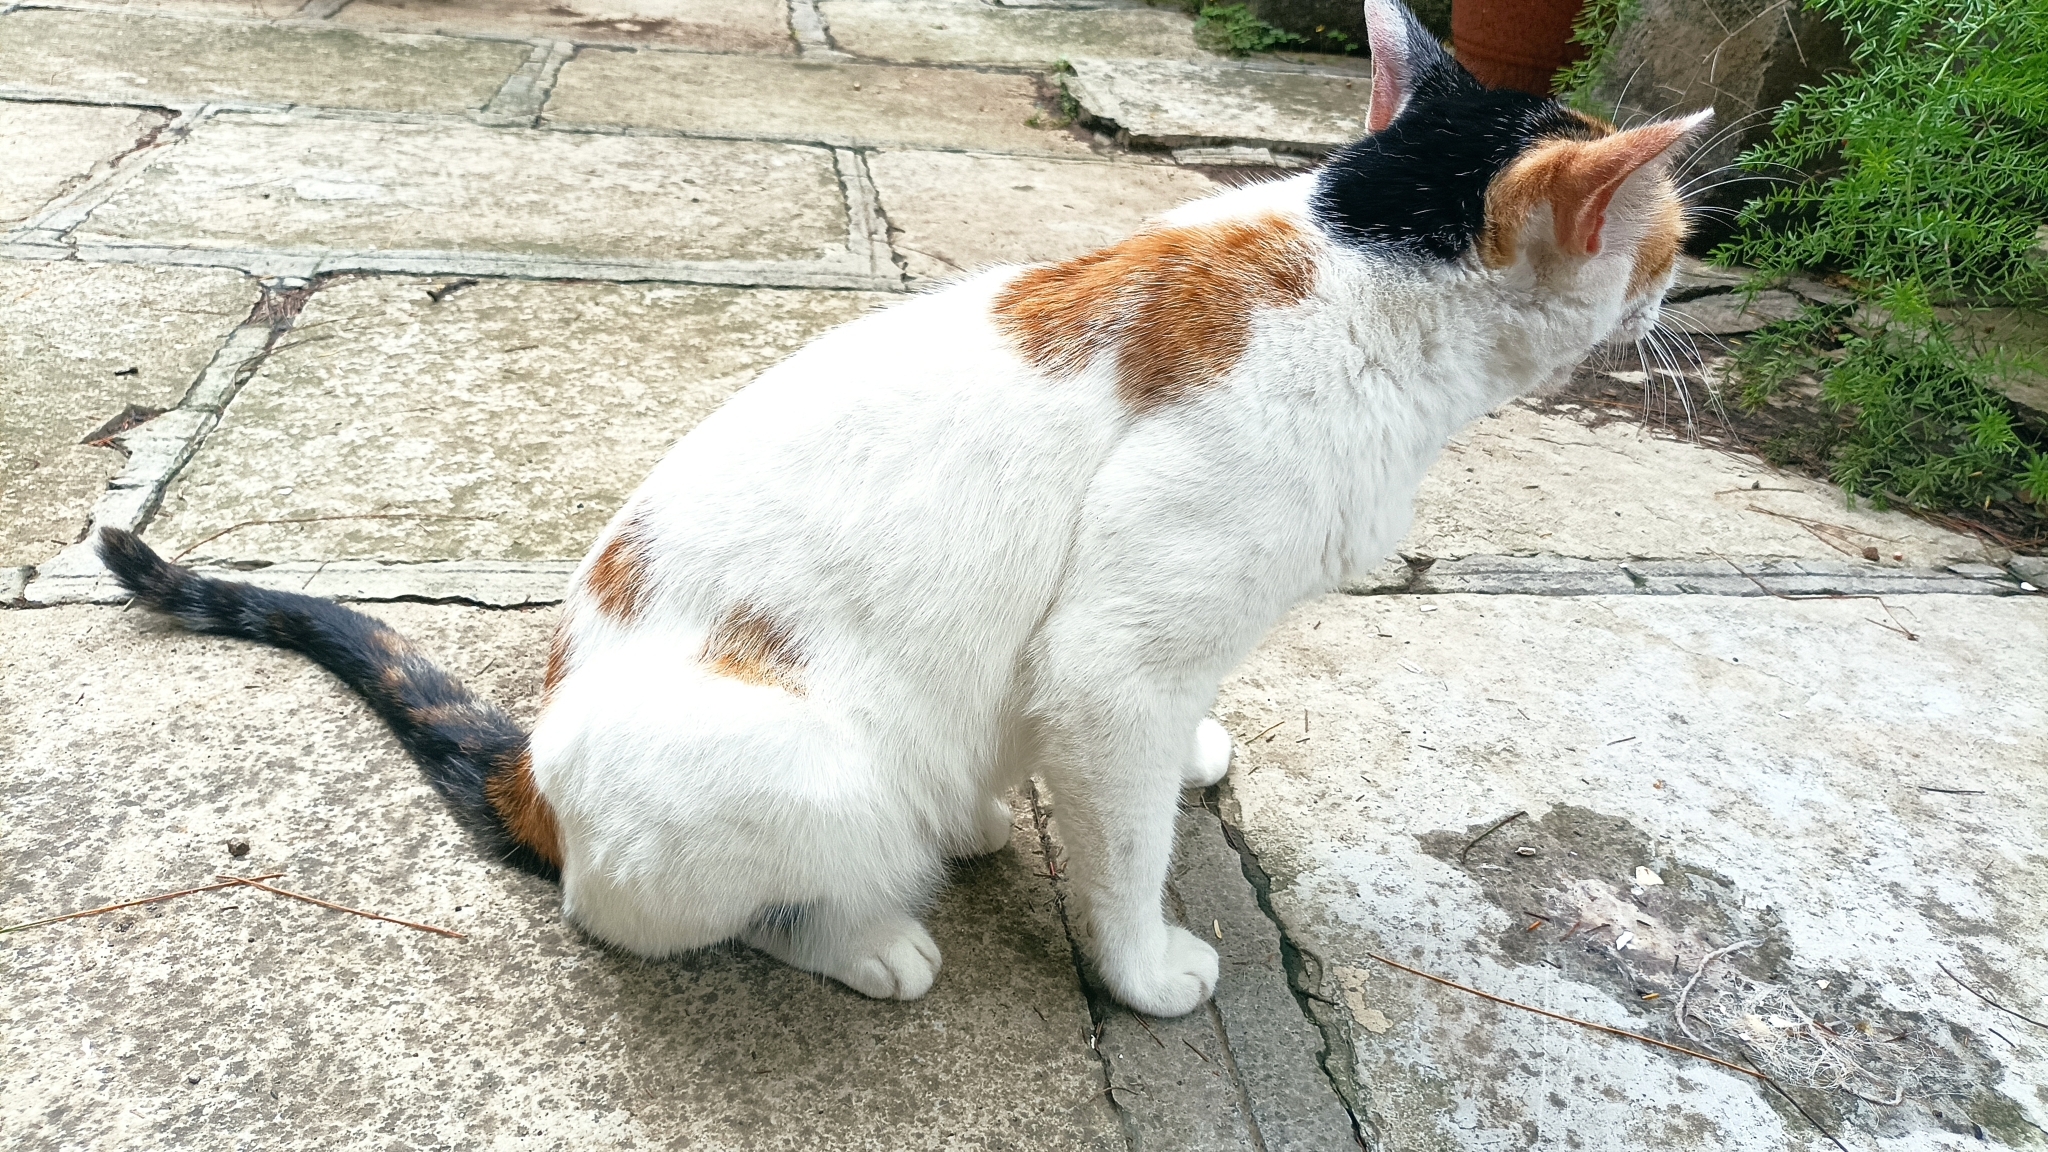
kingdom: Animalia
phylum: Chordata
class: Mammalia
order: Carnivora
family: Felidae
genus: Felis
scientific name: Felis catus
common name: Domestic cat
